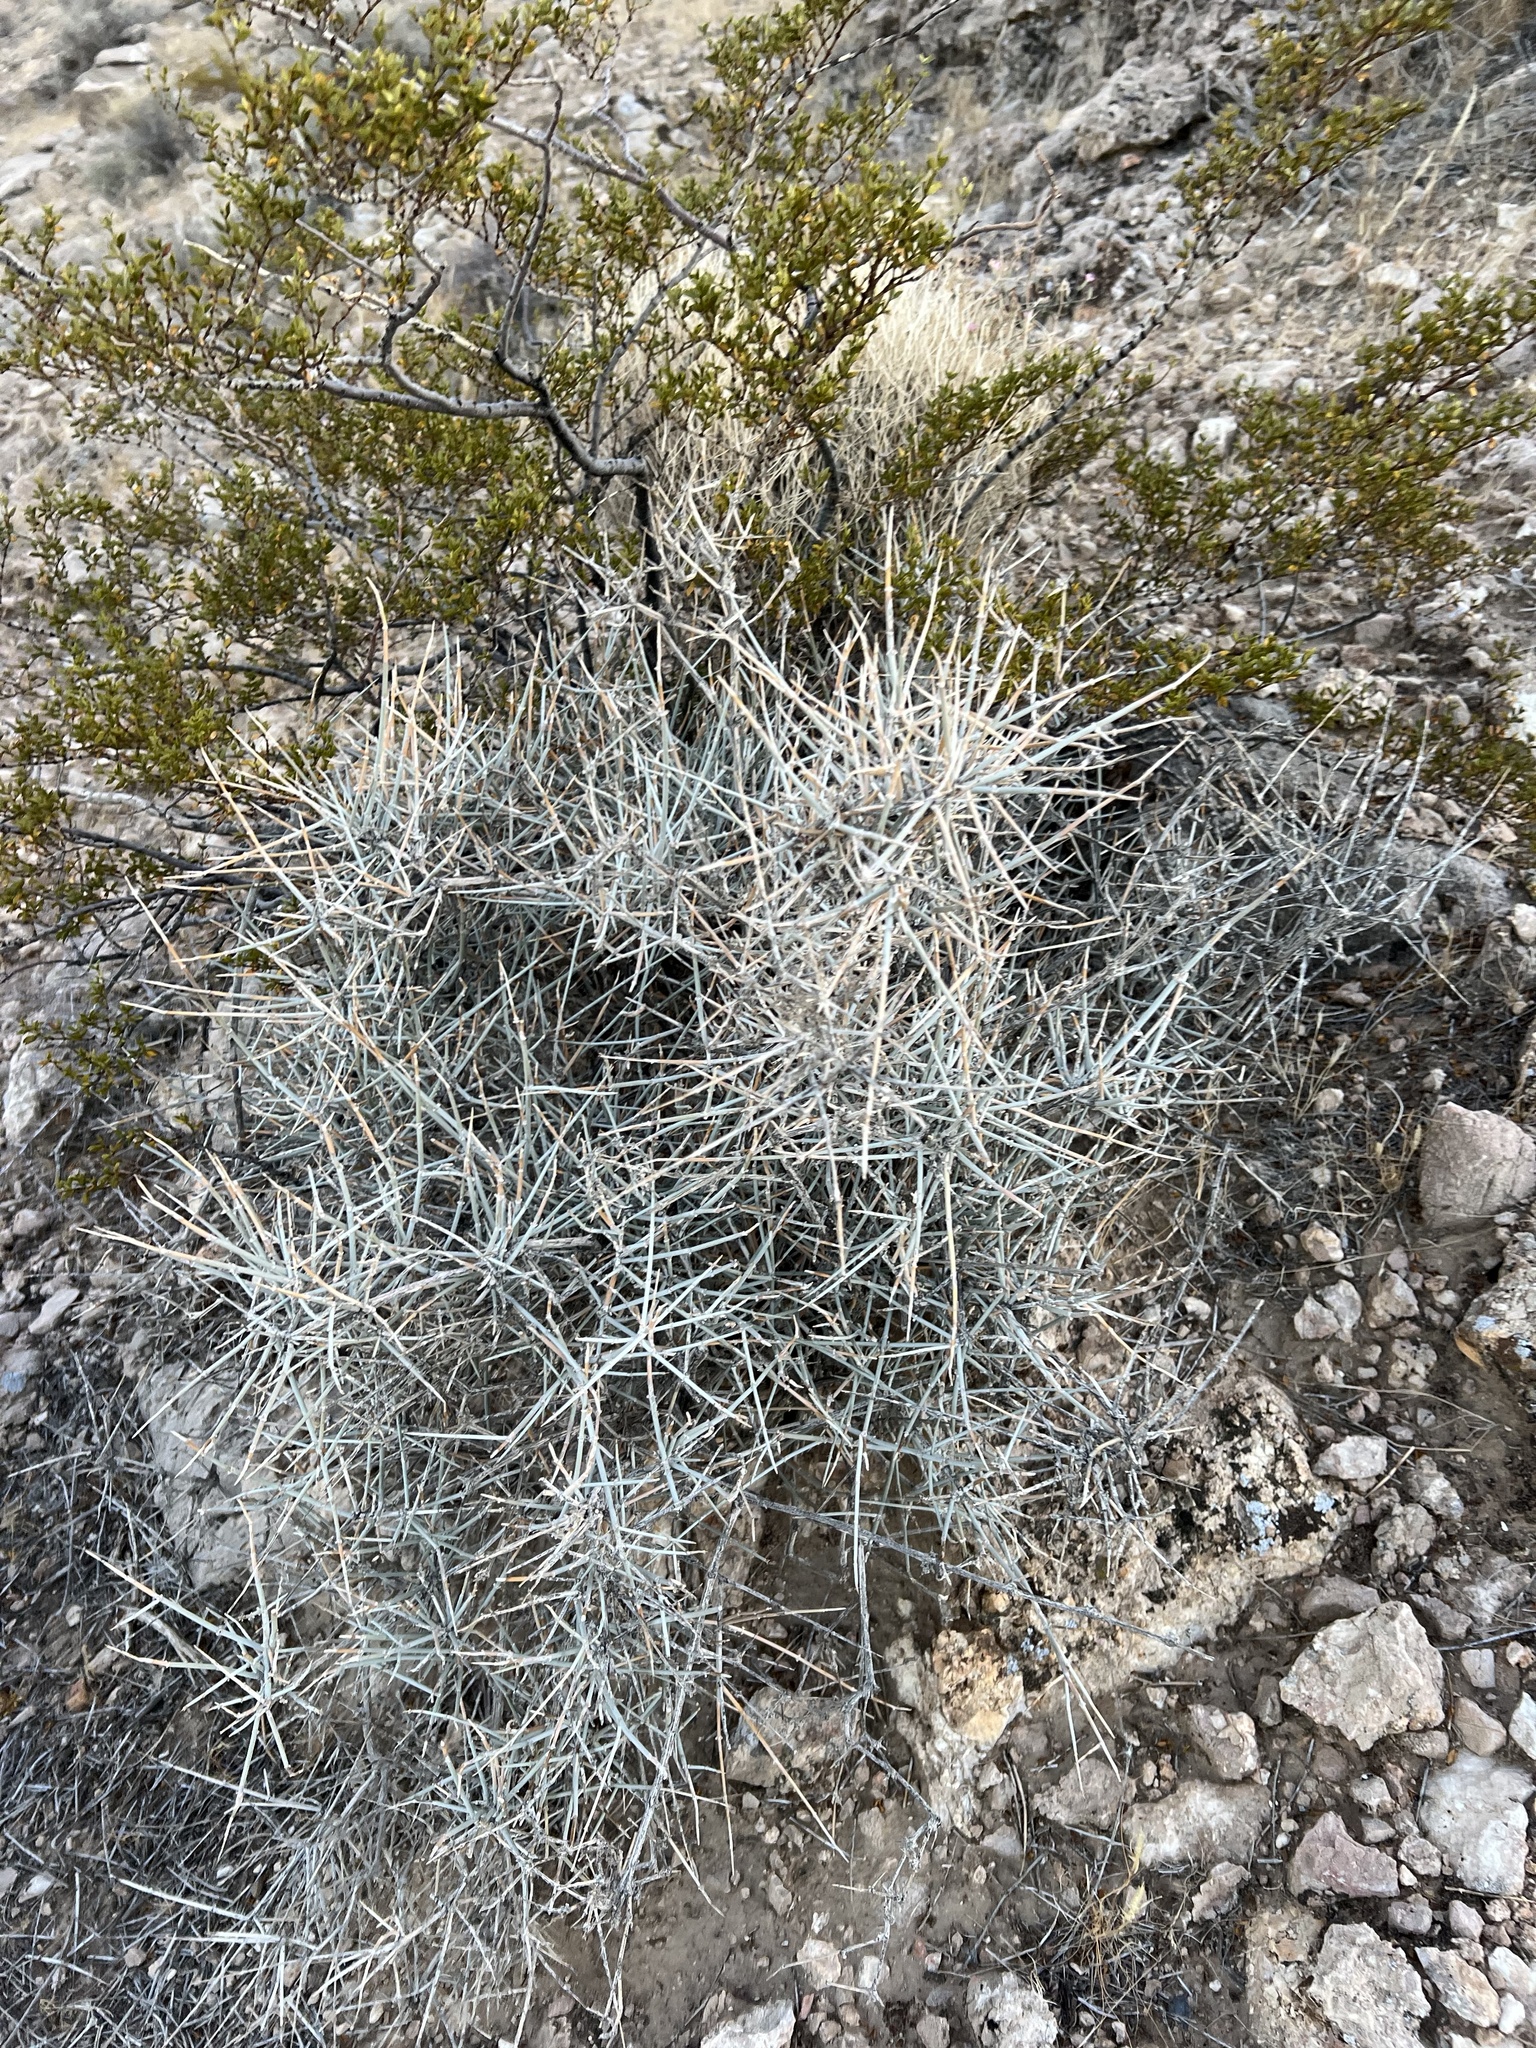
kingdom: Plantae
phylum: Tracheophyta
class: Gnetopsida
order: Ephedrales
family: Ephedraceae
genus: Ephedra
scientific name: Ephedra nevadensis
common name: Gray ephedra
